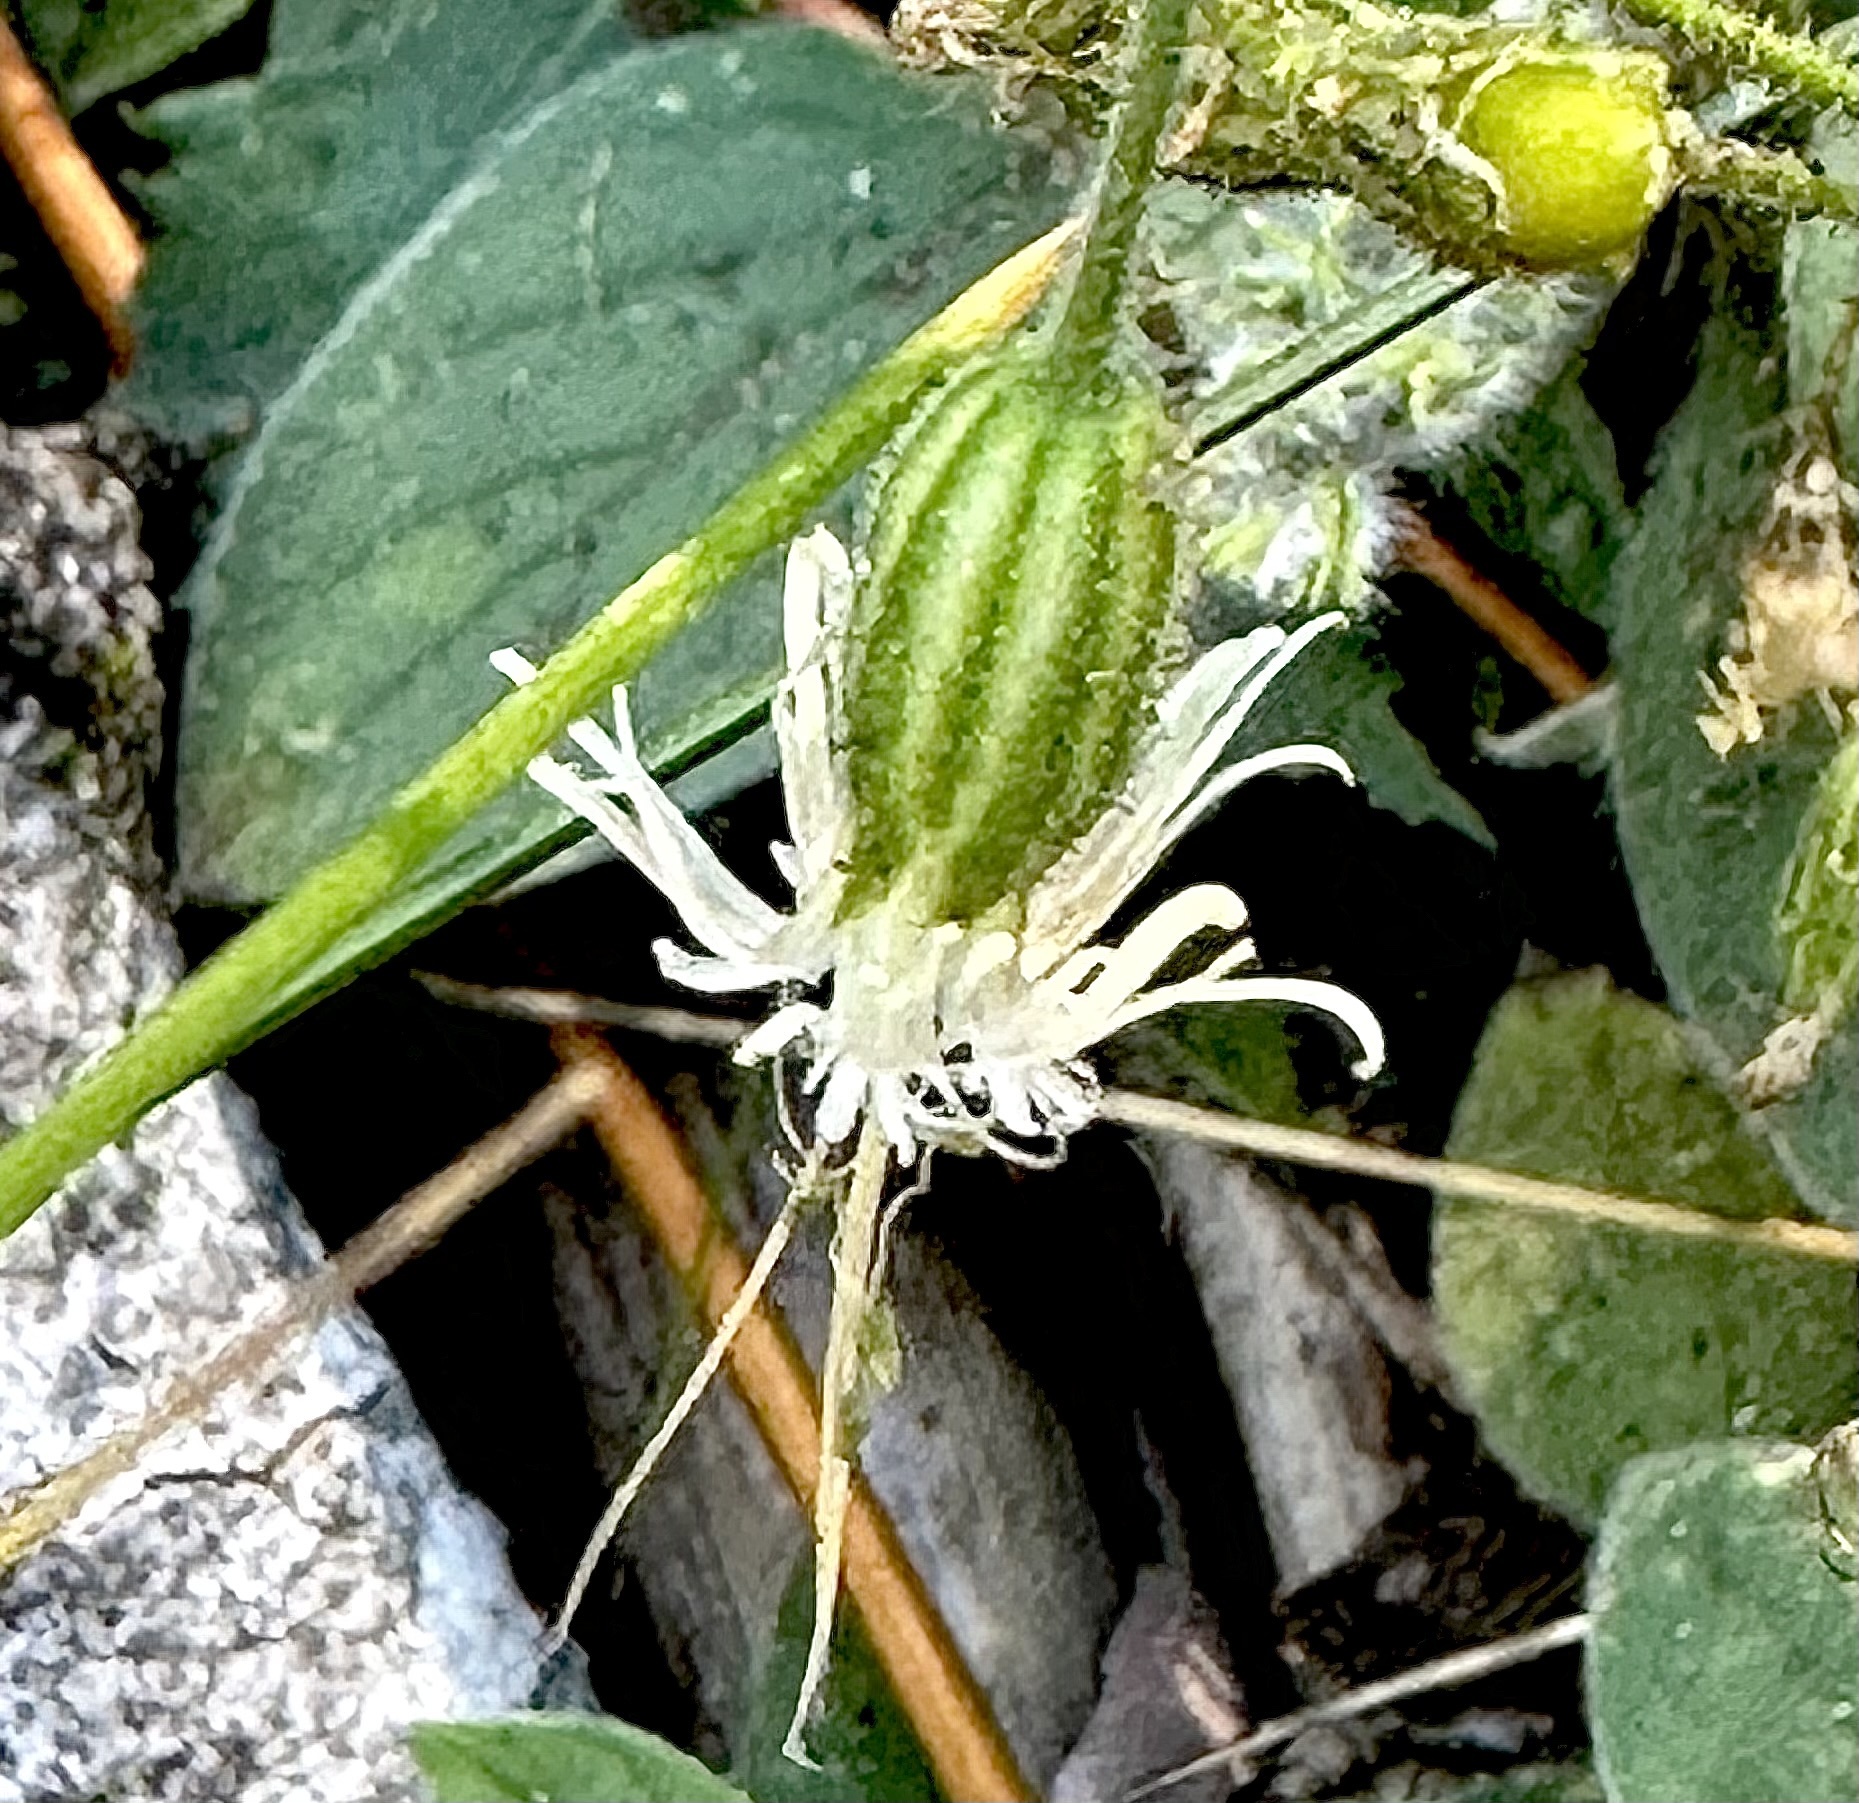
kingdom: Plantae
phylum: Tracheophyta
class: Magnoliopsida
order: Caryophyllales
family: Caryophyllaceae
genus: Silene
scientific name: Silene lemmonii
